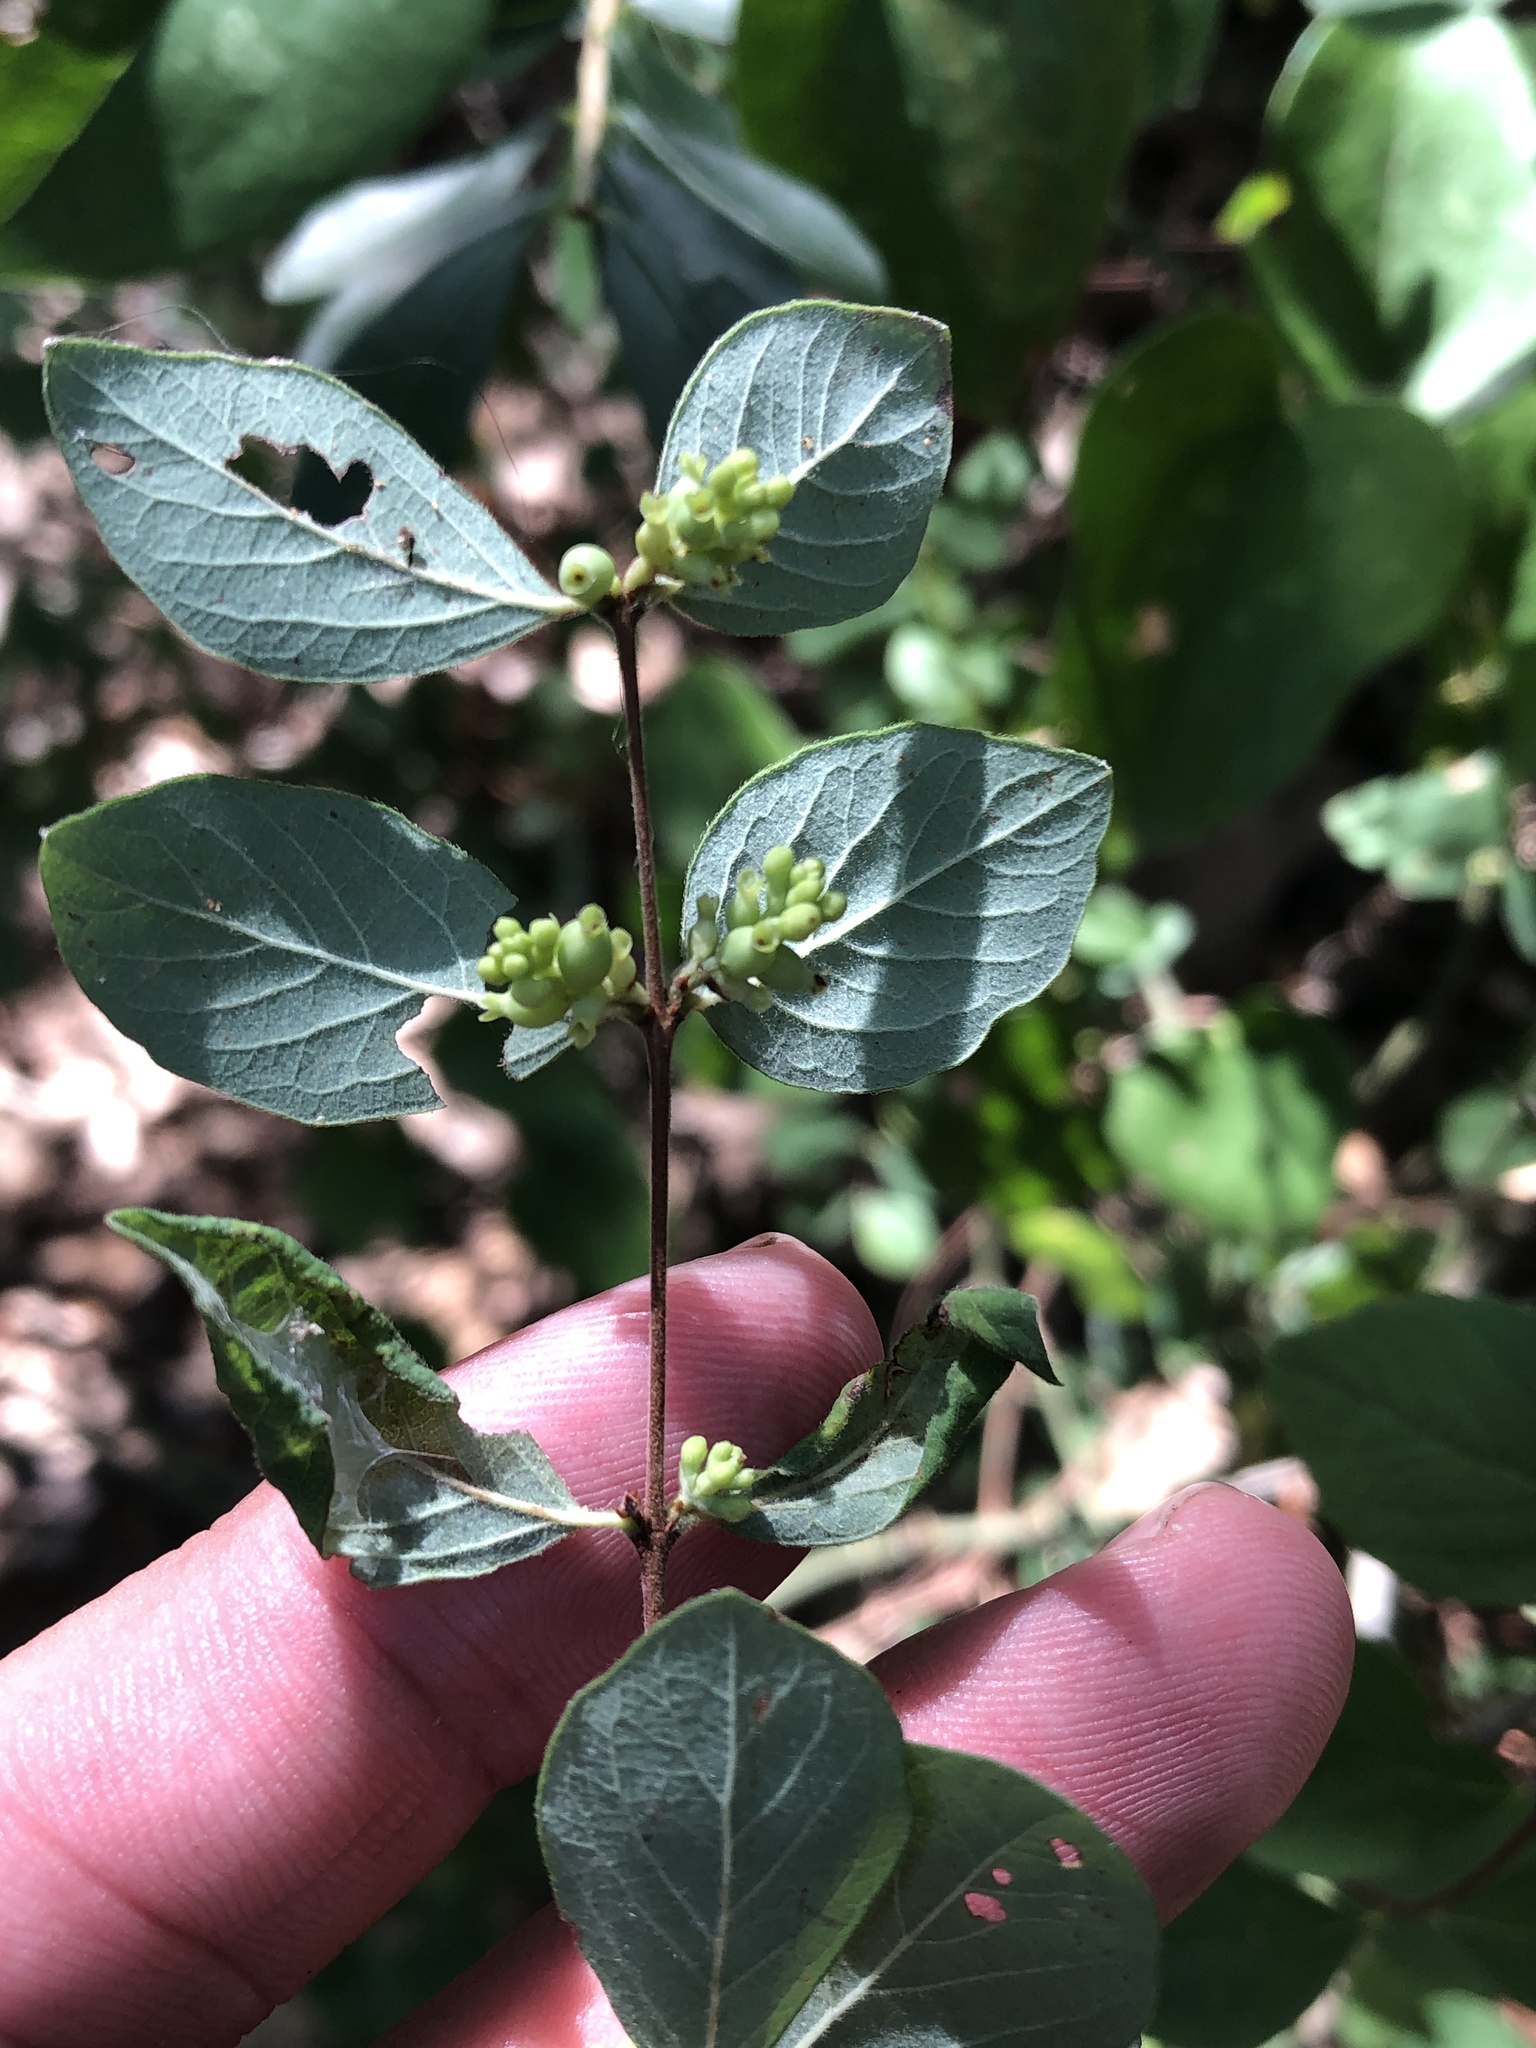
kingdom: Plantae
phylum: Tracheophyta
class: Magnoliopsida
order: Dipsacales
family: Caprifoliaceae
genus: Symphoricarpos
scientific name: Symphoricarpos orbiculatus
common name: Coralberry
